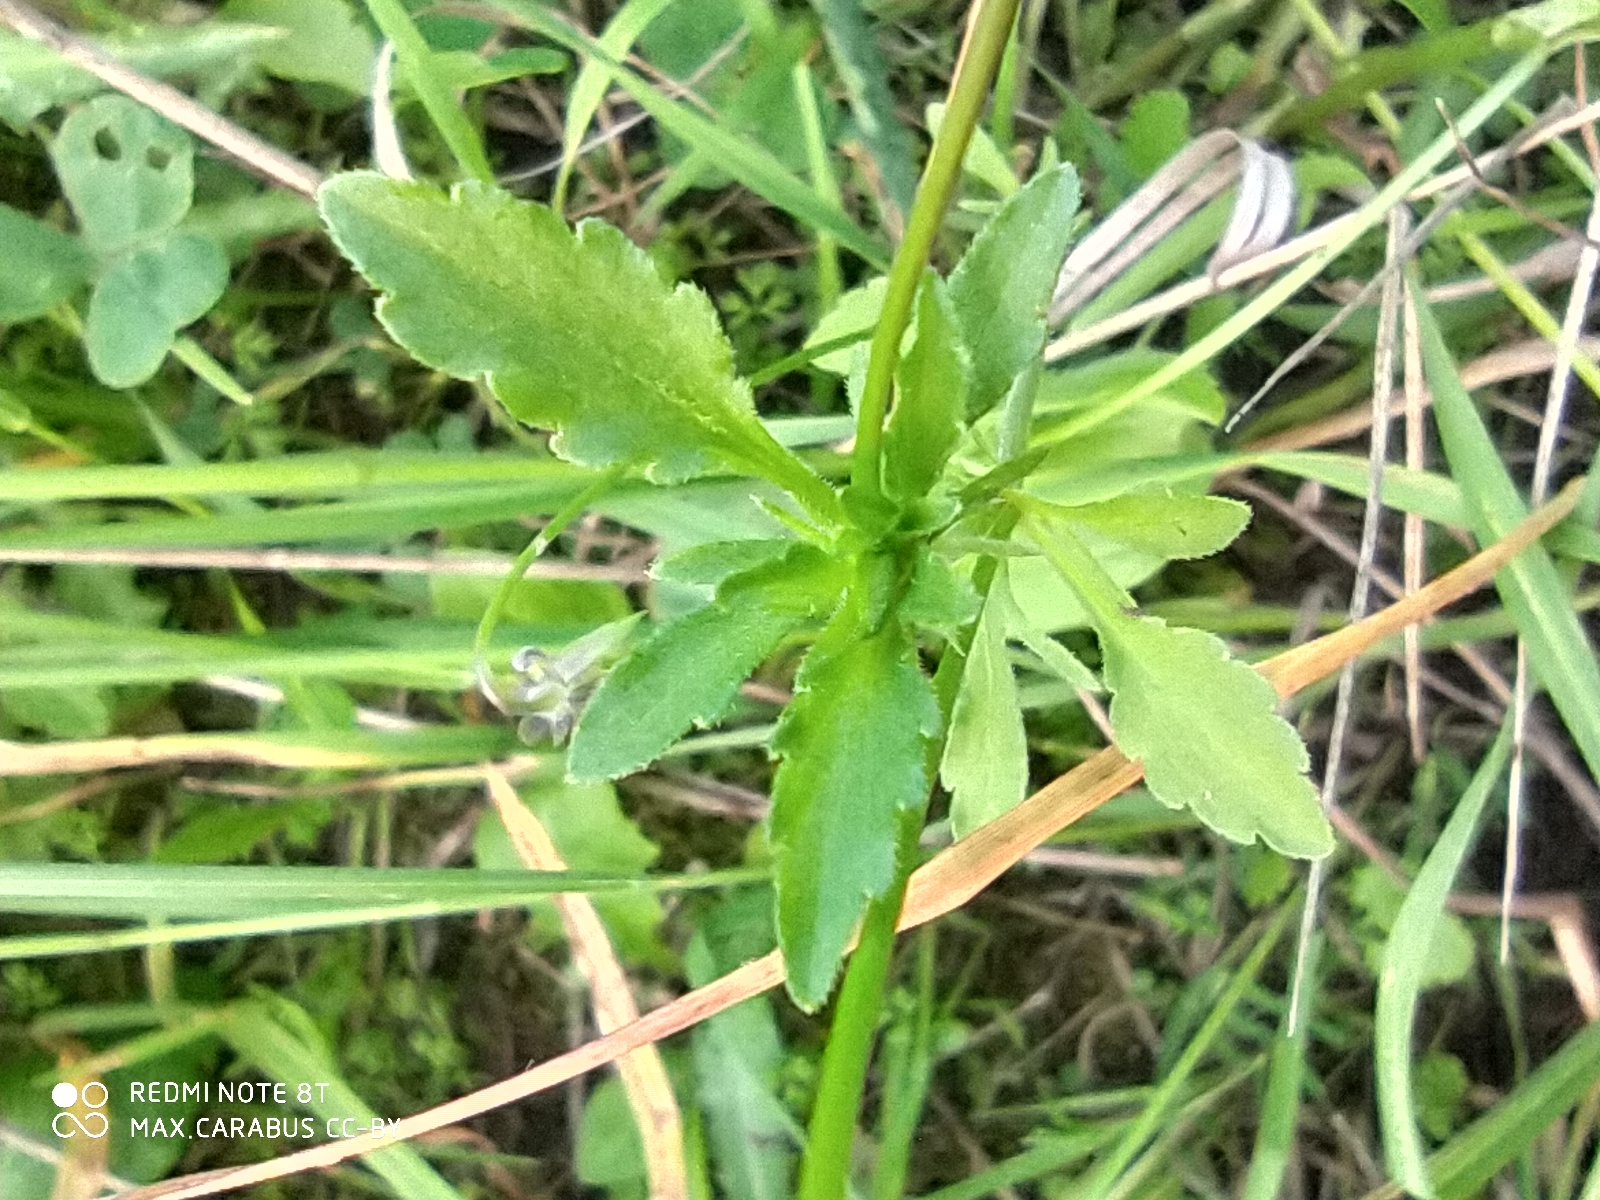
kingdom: Plantae
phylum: Tracheophyta
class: Magnoliopsida
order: Malpighiales
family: Violaceae
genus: Viola
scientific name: Viola arvensis
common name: Field pansy
